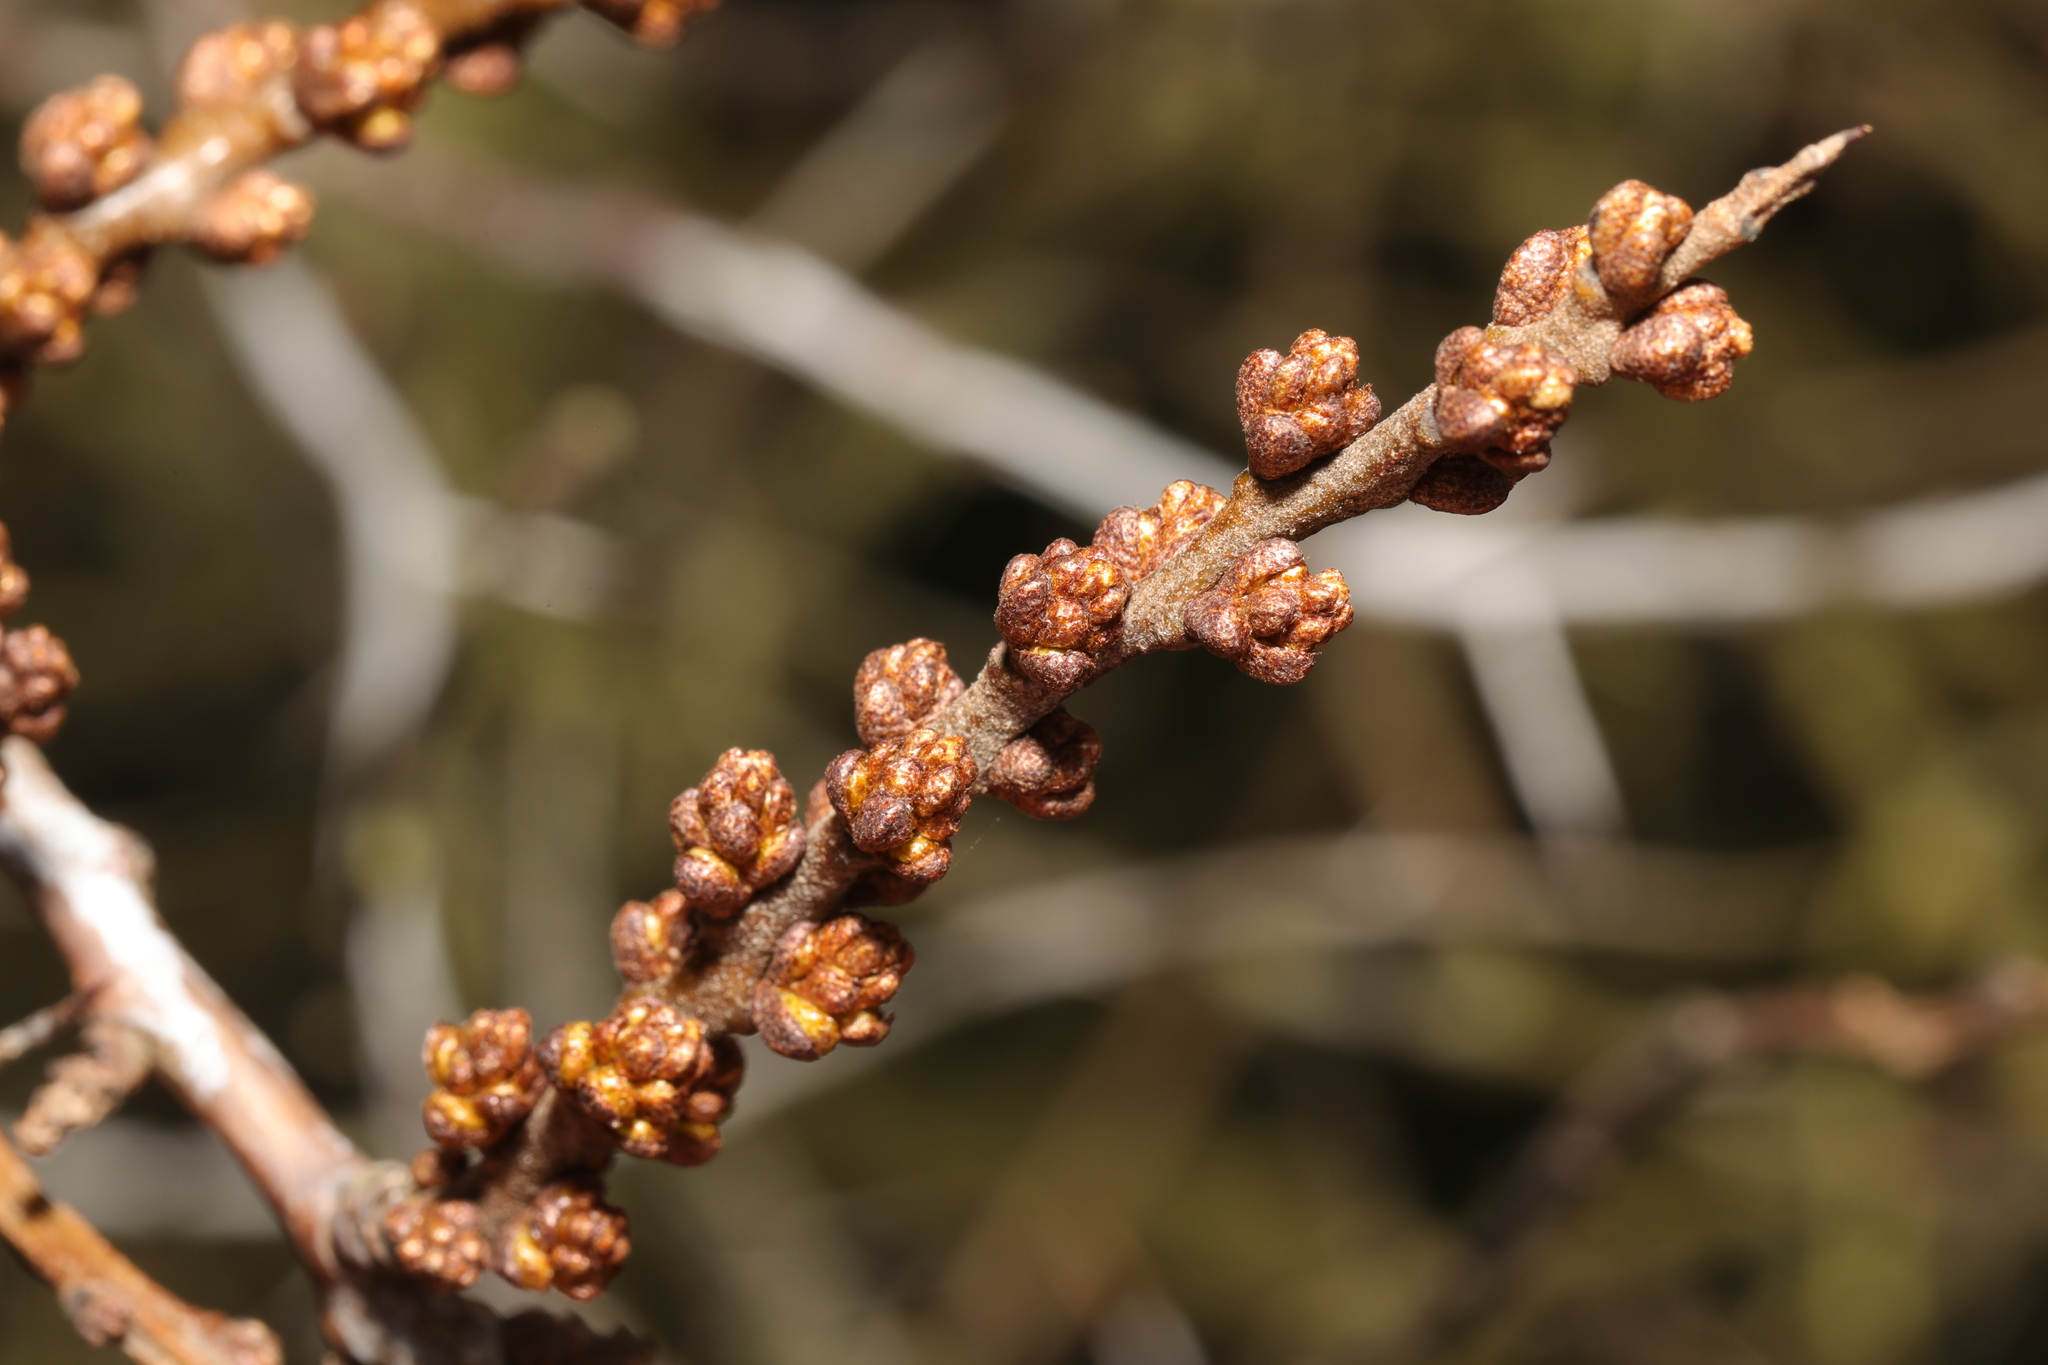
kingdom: Plantae
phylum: Tracheophyta
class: Magnoliopsida
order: Rosales
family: Elaeagnaceae
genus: Hippophae
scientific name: Hippophae rhamnoides
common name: Sea-buckthorn
